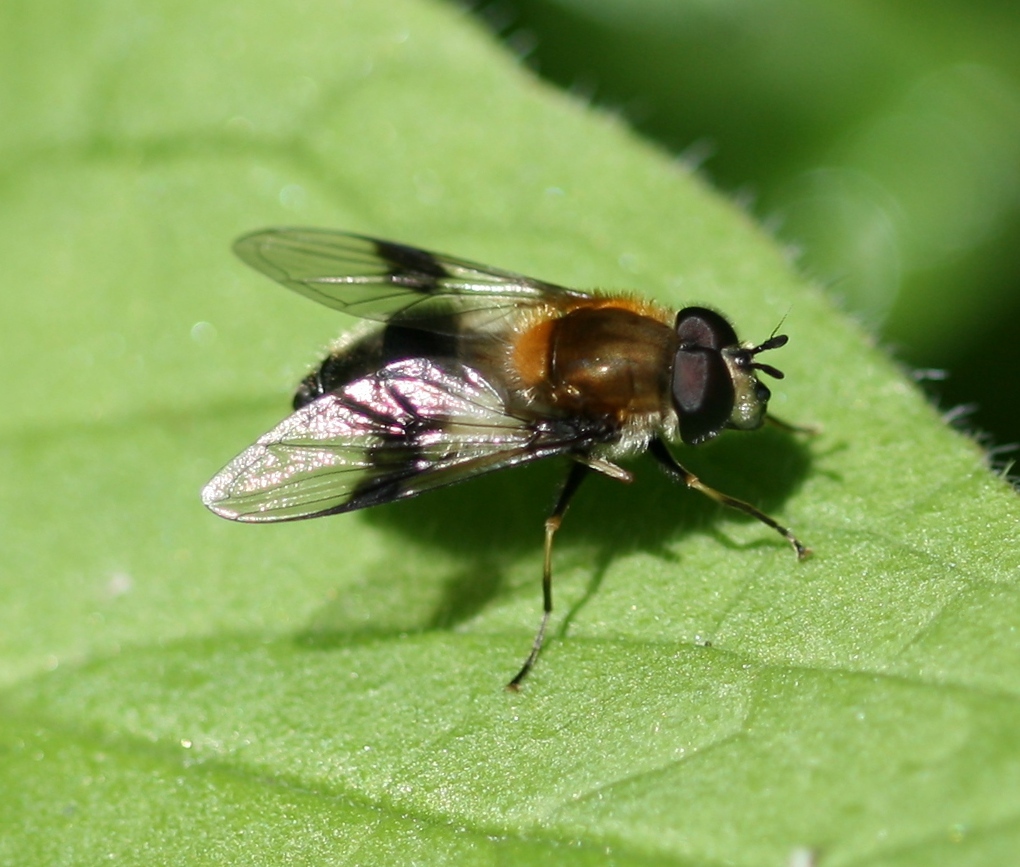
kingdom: Animalia
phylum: Arthropoda
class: Insecta
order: Diptera
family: Syrphidae
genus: Leucozona
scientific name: Leucozona lucorum
